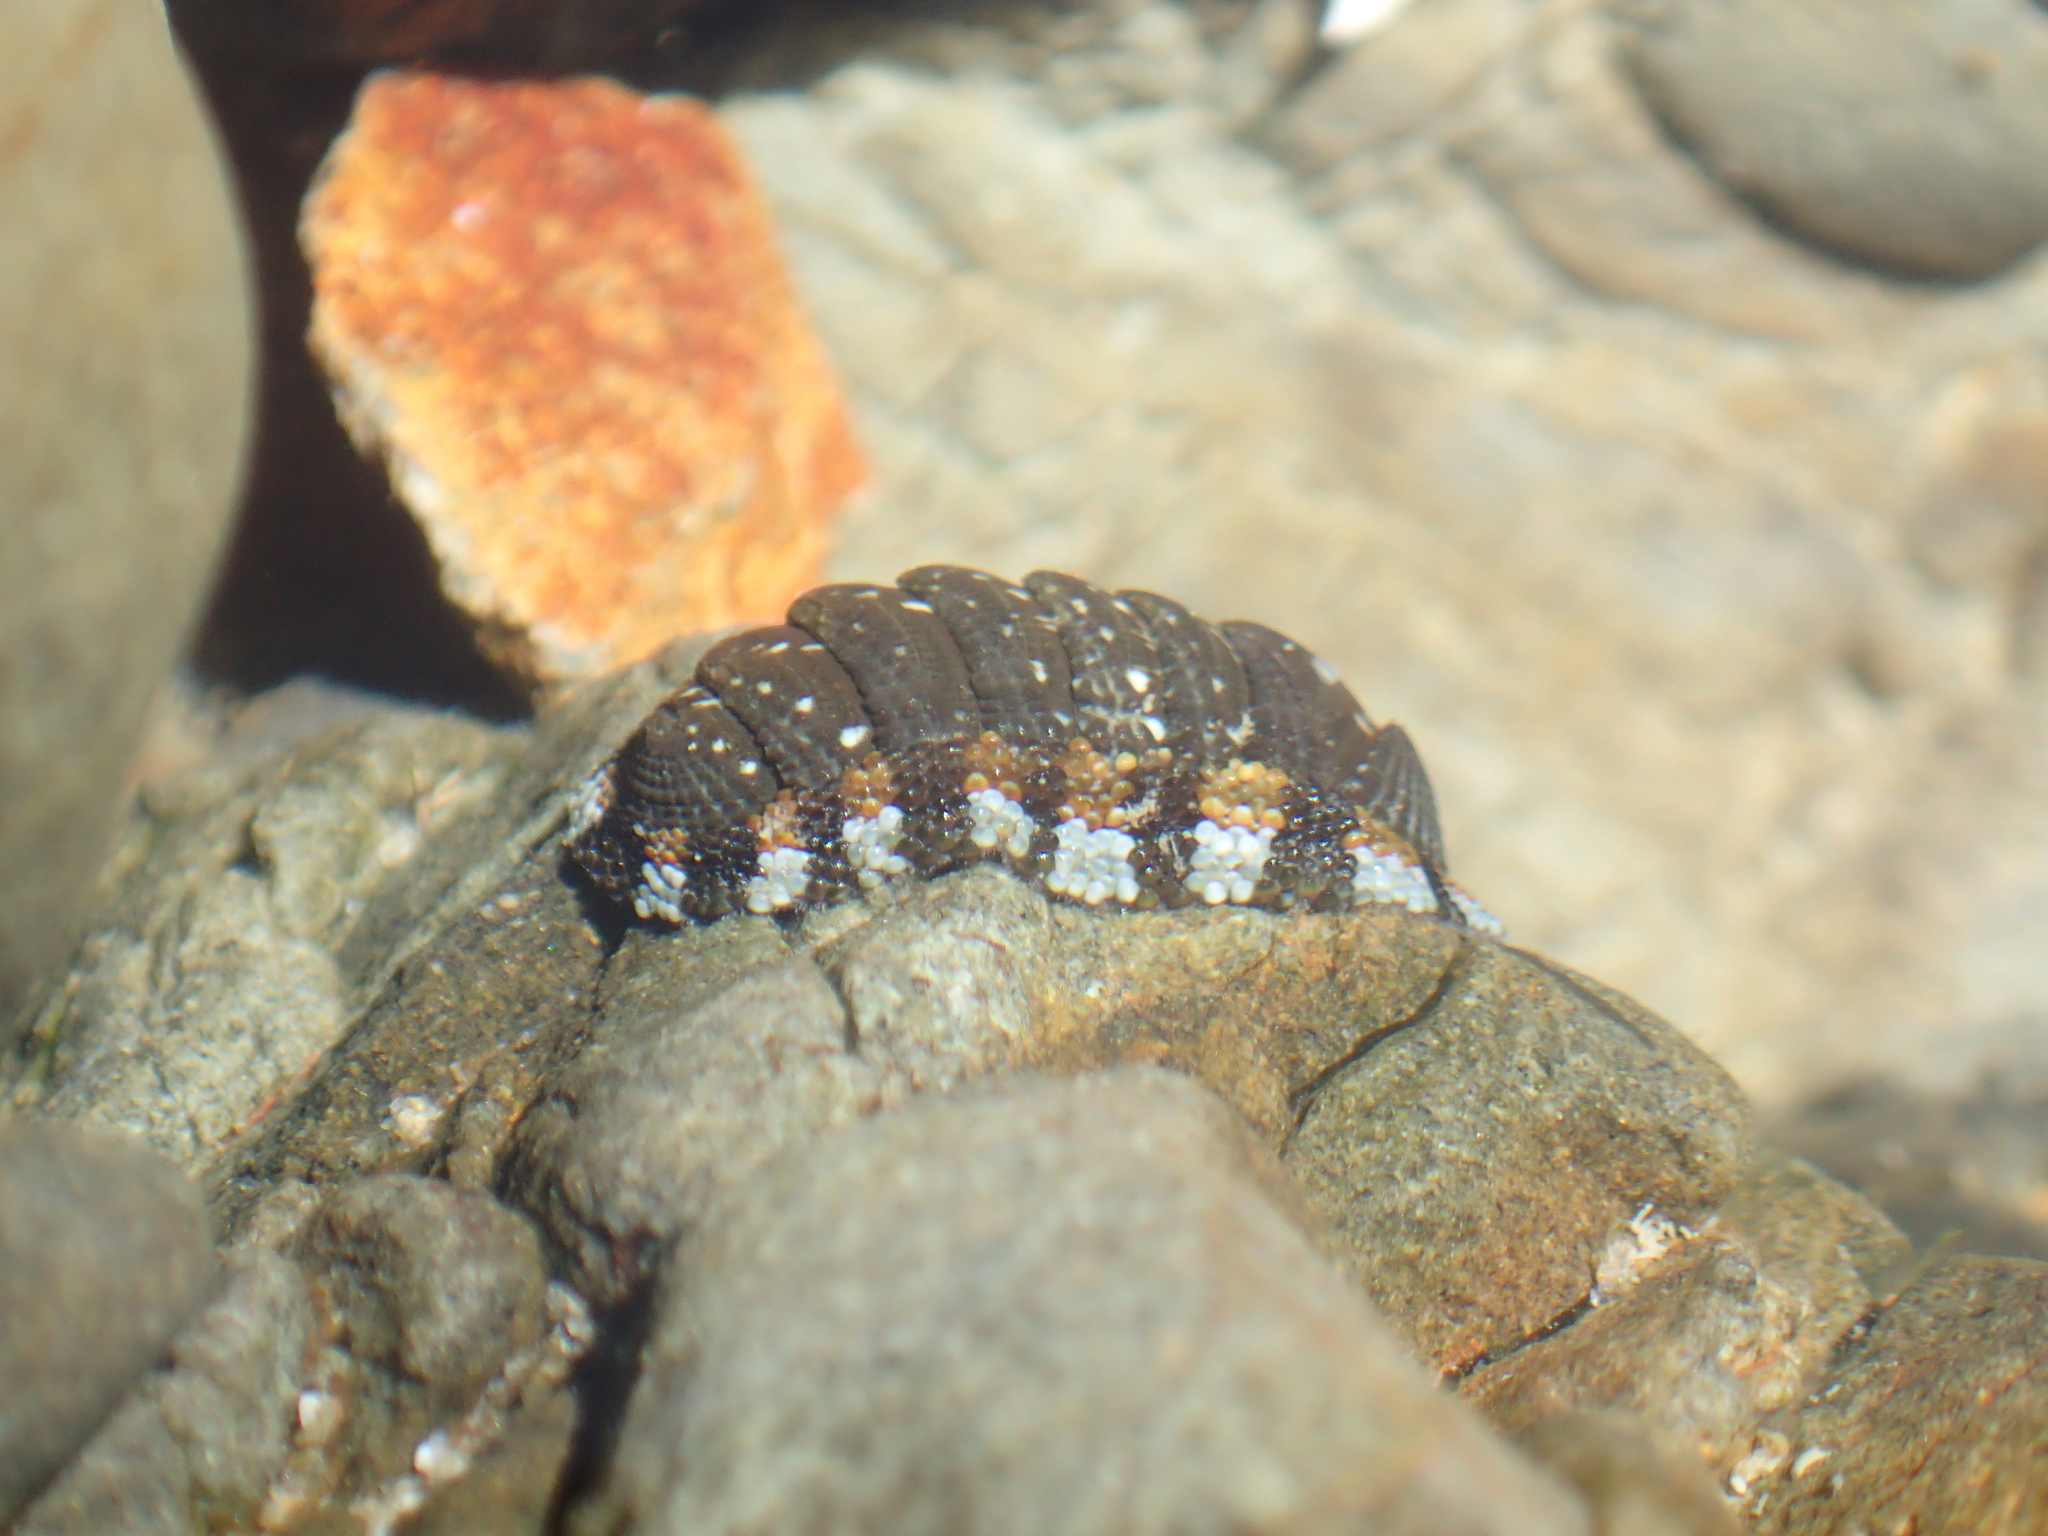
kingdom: Animalia
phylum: Mollusca
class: Polyplacophora
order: Chitonida
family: Chitonidae
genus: Sypharochiton
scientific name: Sypharochiton sinclairi
